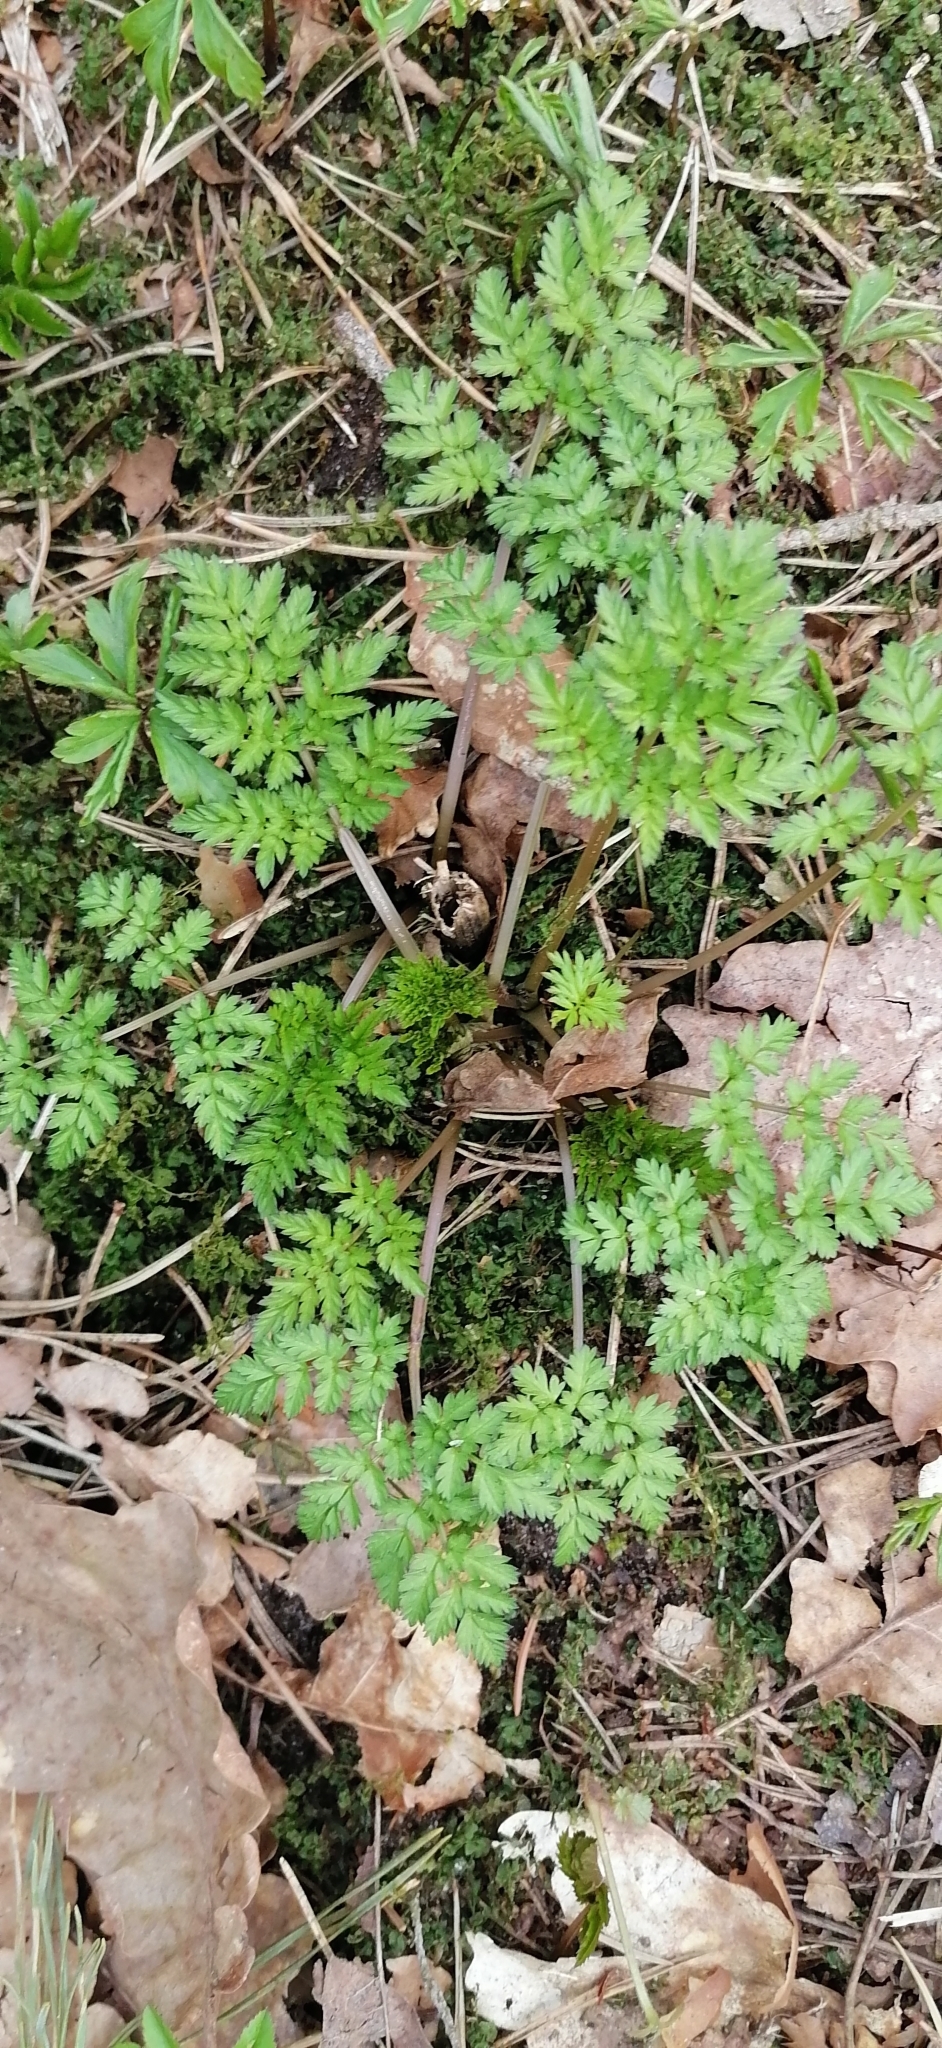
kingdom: Plantae
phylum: Tracheophyta
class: Magnoliopsida
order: Apiales
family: Apiaceae
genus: Anthriscus
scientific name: Anthriscus sylvestris
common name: Cow parsley
